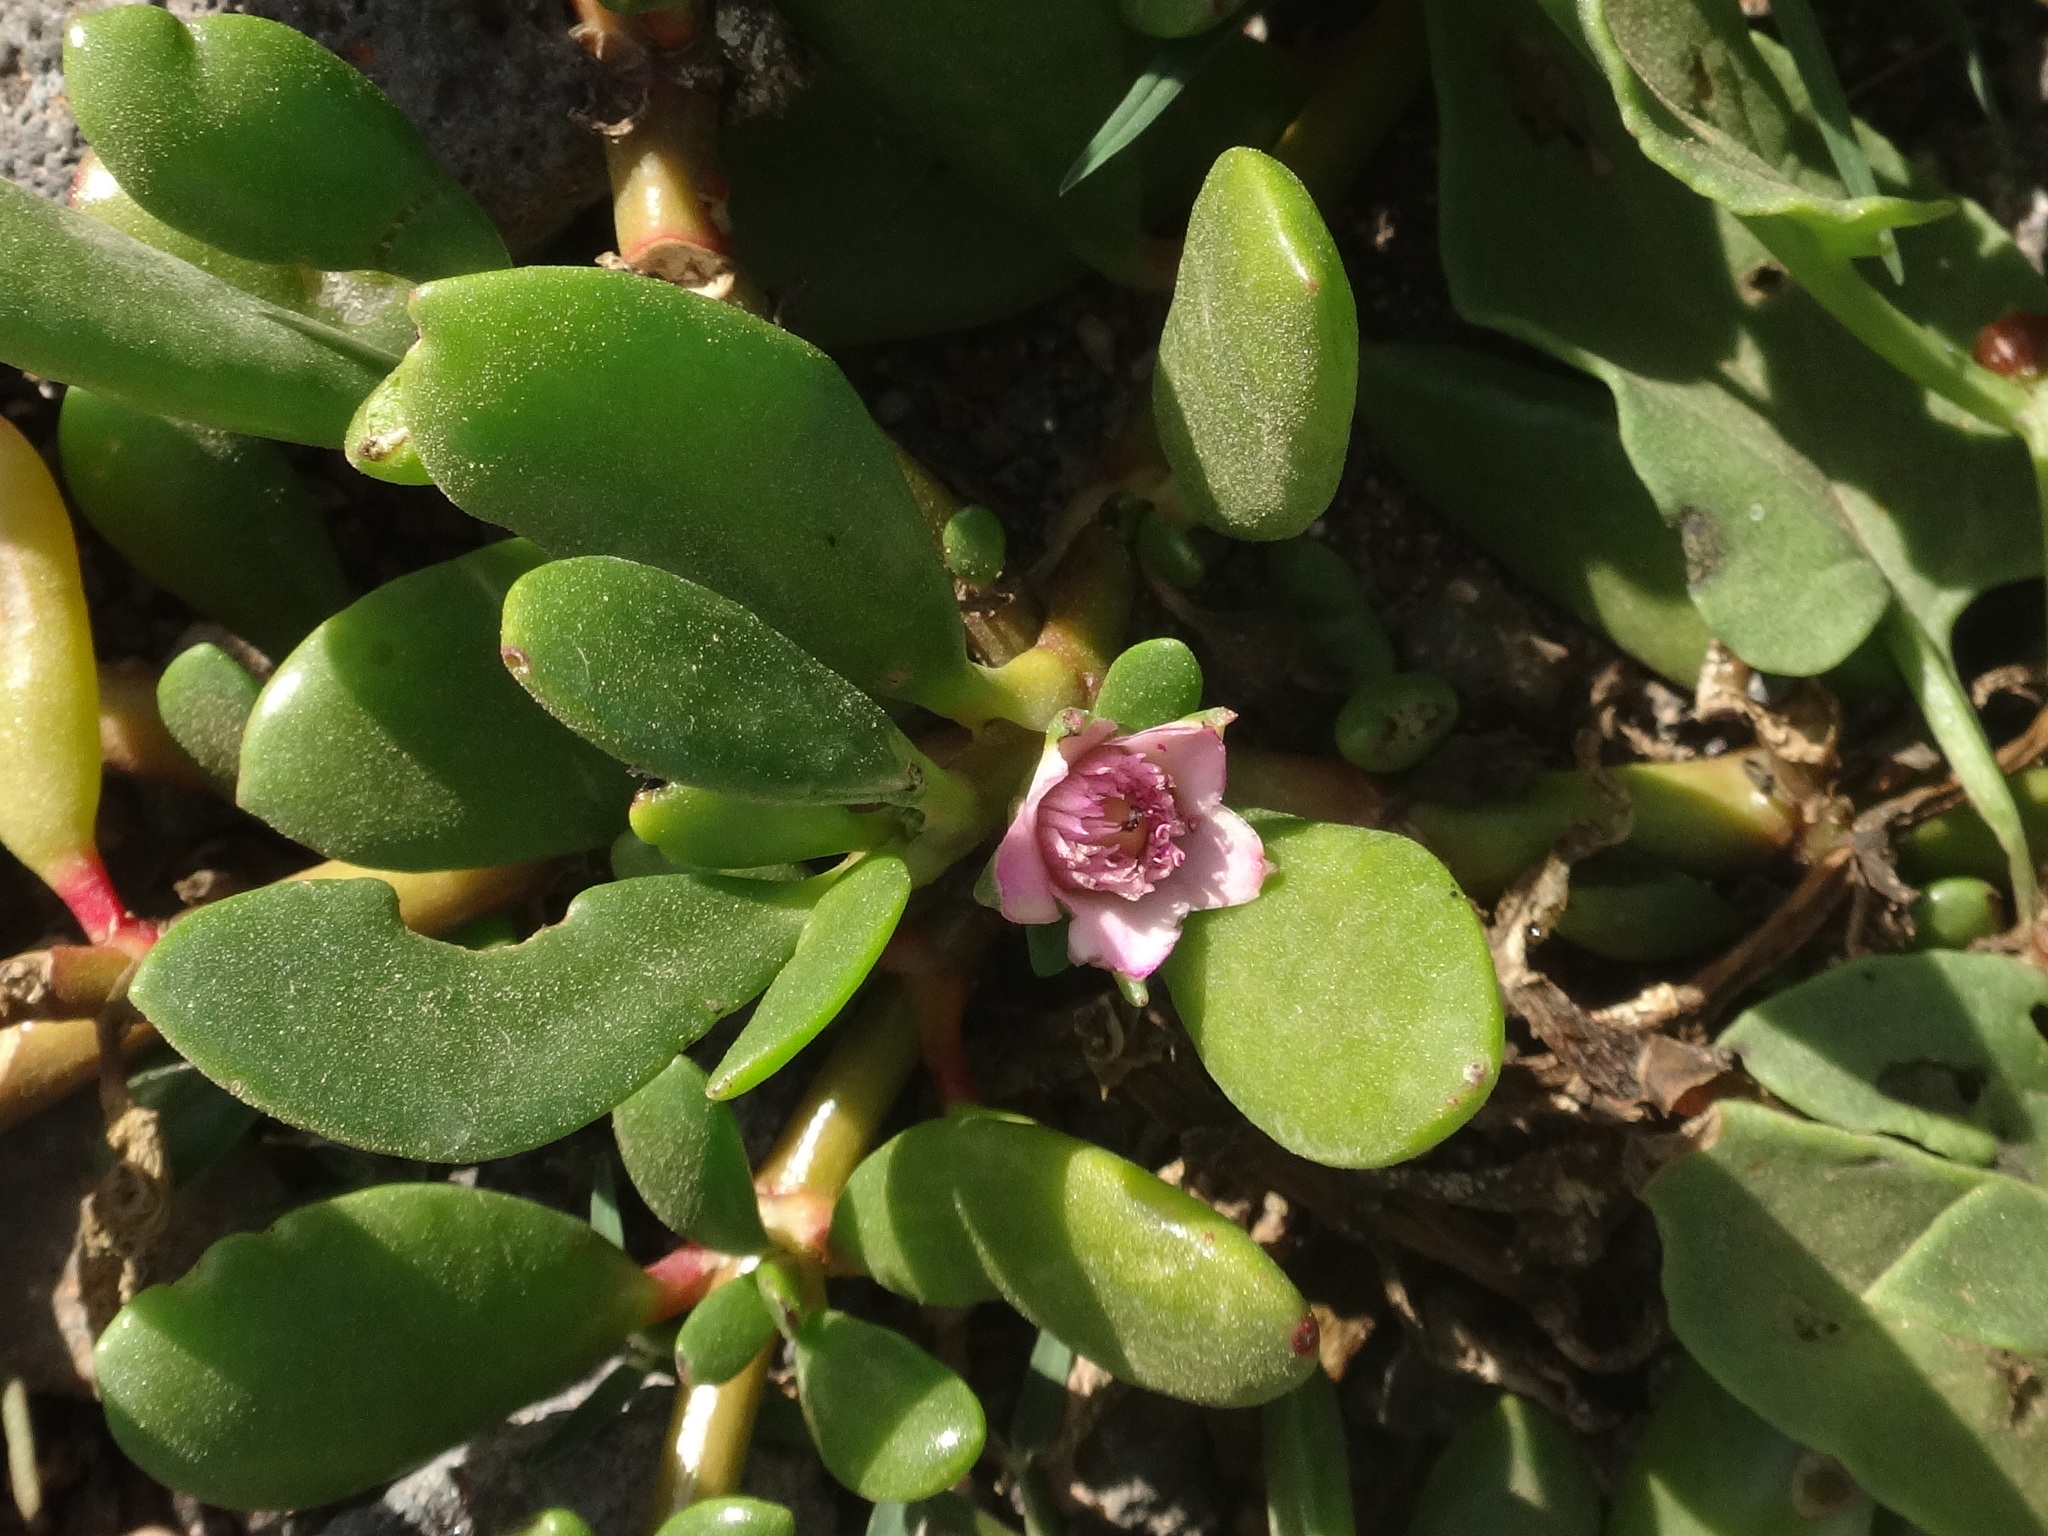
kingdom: Plantae
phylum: Tracheophyta
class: Magnoliopsida
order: Caryophyllales
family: Aizoaceae
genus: Sesuvium
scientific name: Sesuvium portulacastrum
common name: Sea-purslane
